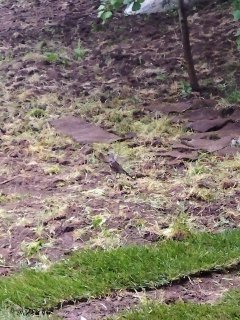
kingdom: Animalia
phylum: Chordata
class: Aves
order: Passeriformes
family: Turdidae
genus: Turdus
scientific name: Turdus pilaris
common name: Fieldfare
